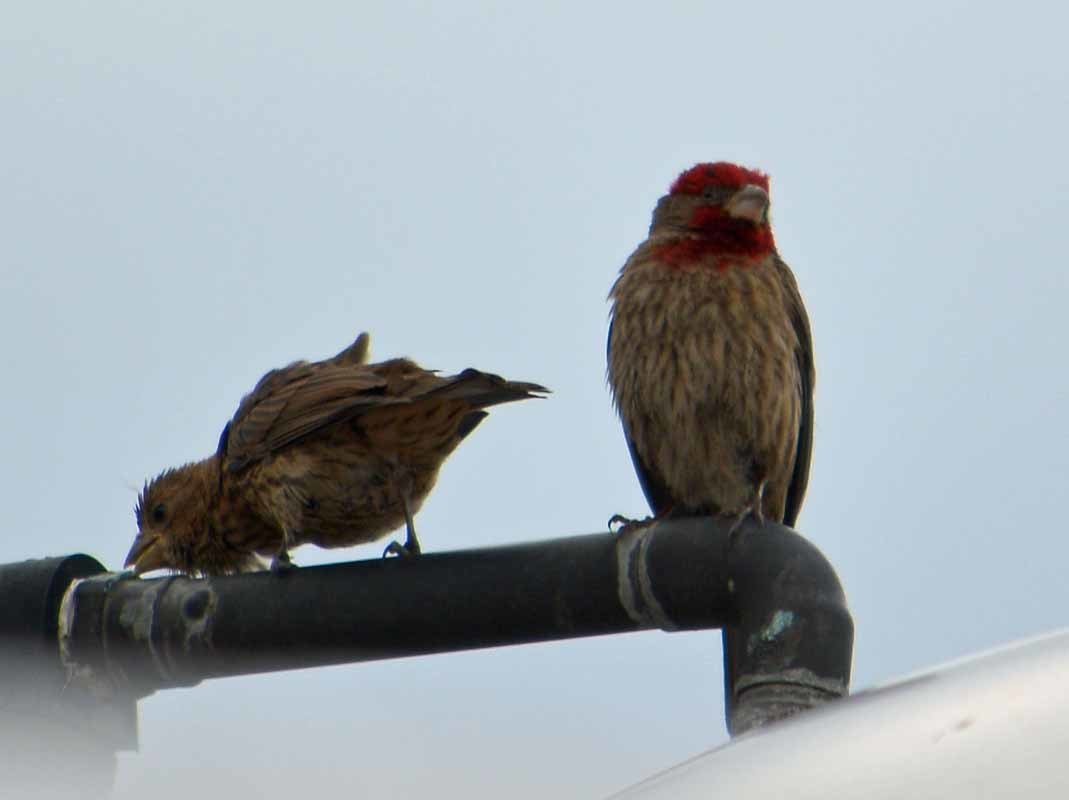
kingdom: Animalia
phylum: Chordata
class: Aves
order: Passeriformes
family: Fringillidae
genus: Haemorhous
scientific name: Haemorhous mexicanus
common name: House finch
